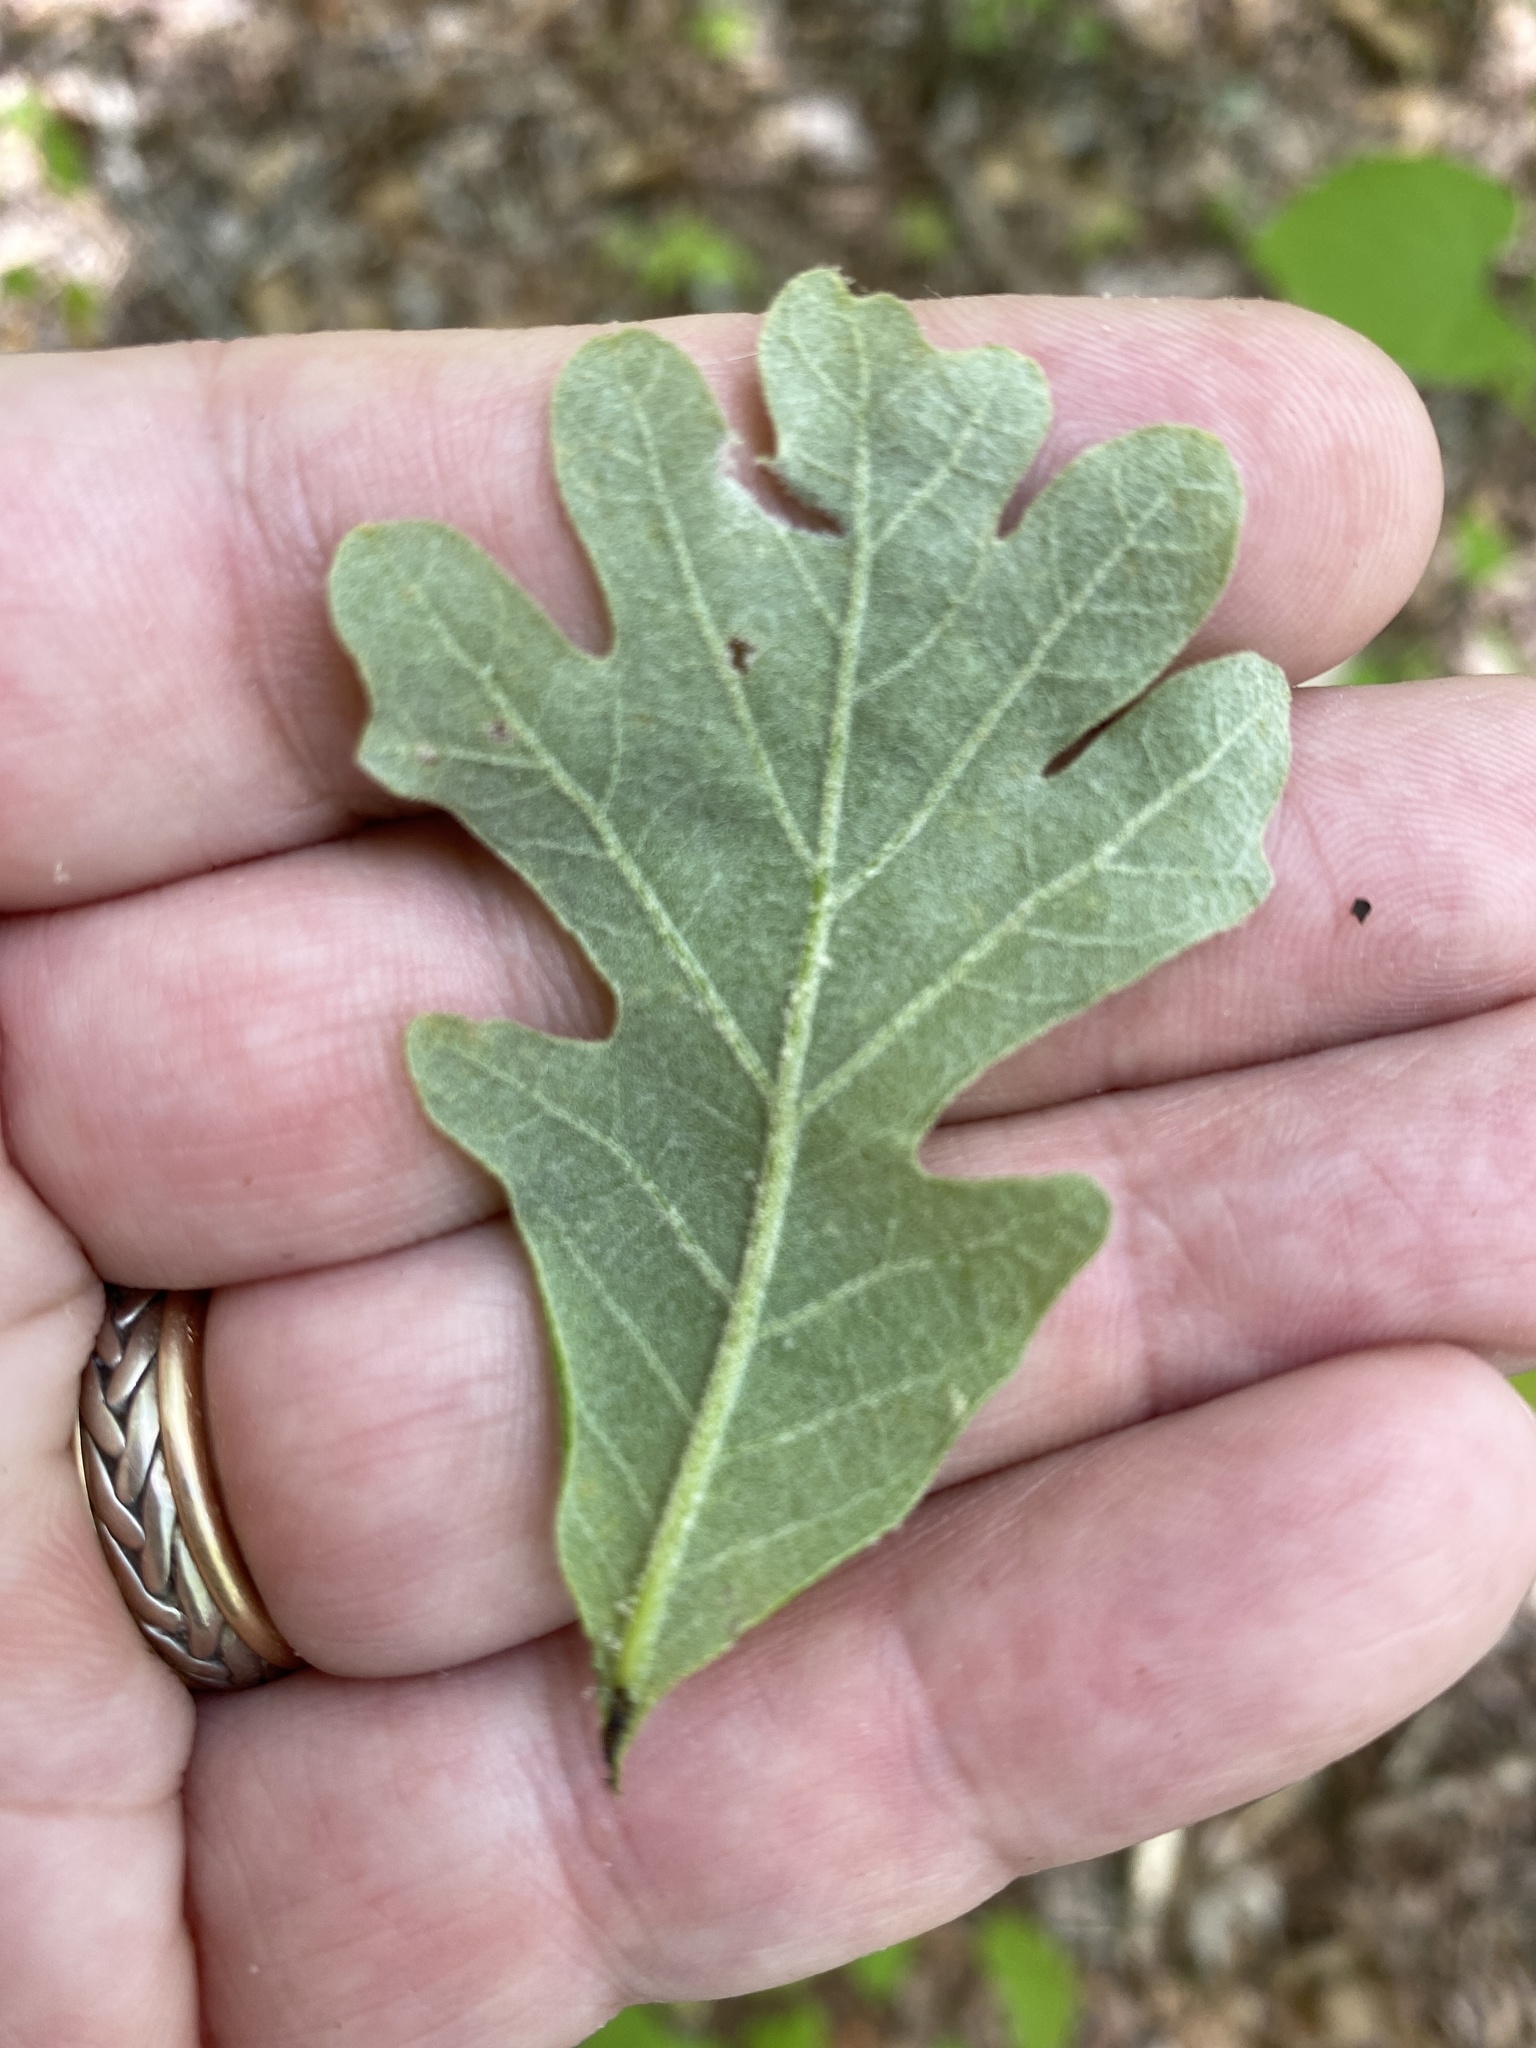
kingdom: Plantae
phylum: Tracheophyta
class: Magnoliopsida
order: Fagales
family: Fagaceae
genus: Quercus
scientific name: Quercus alba
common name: White oak
